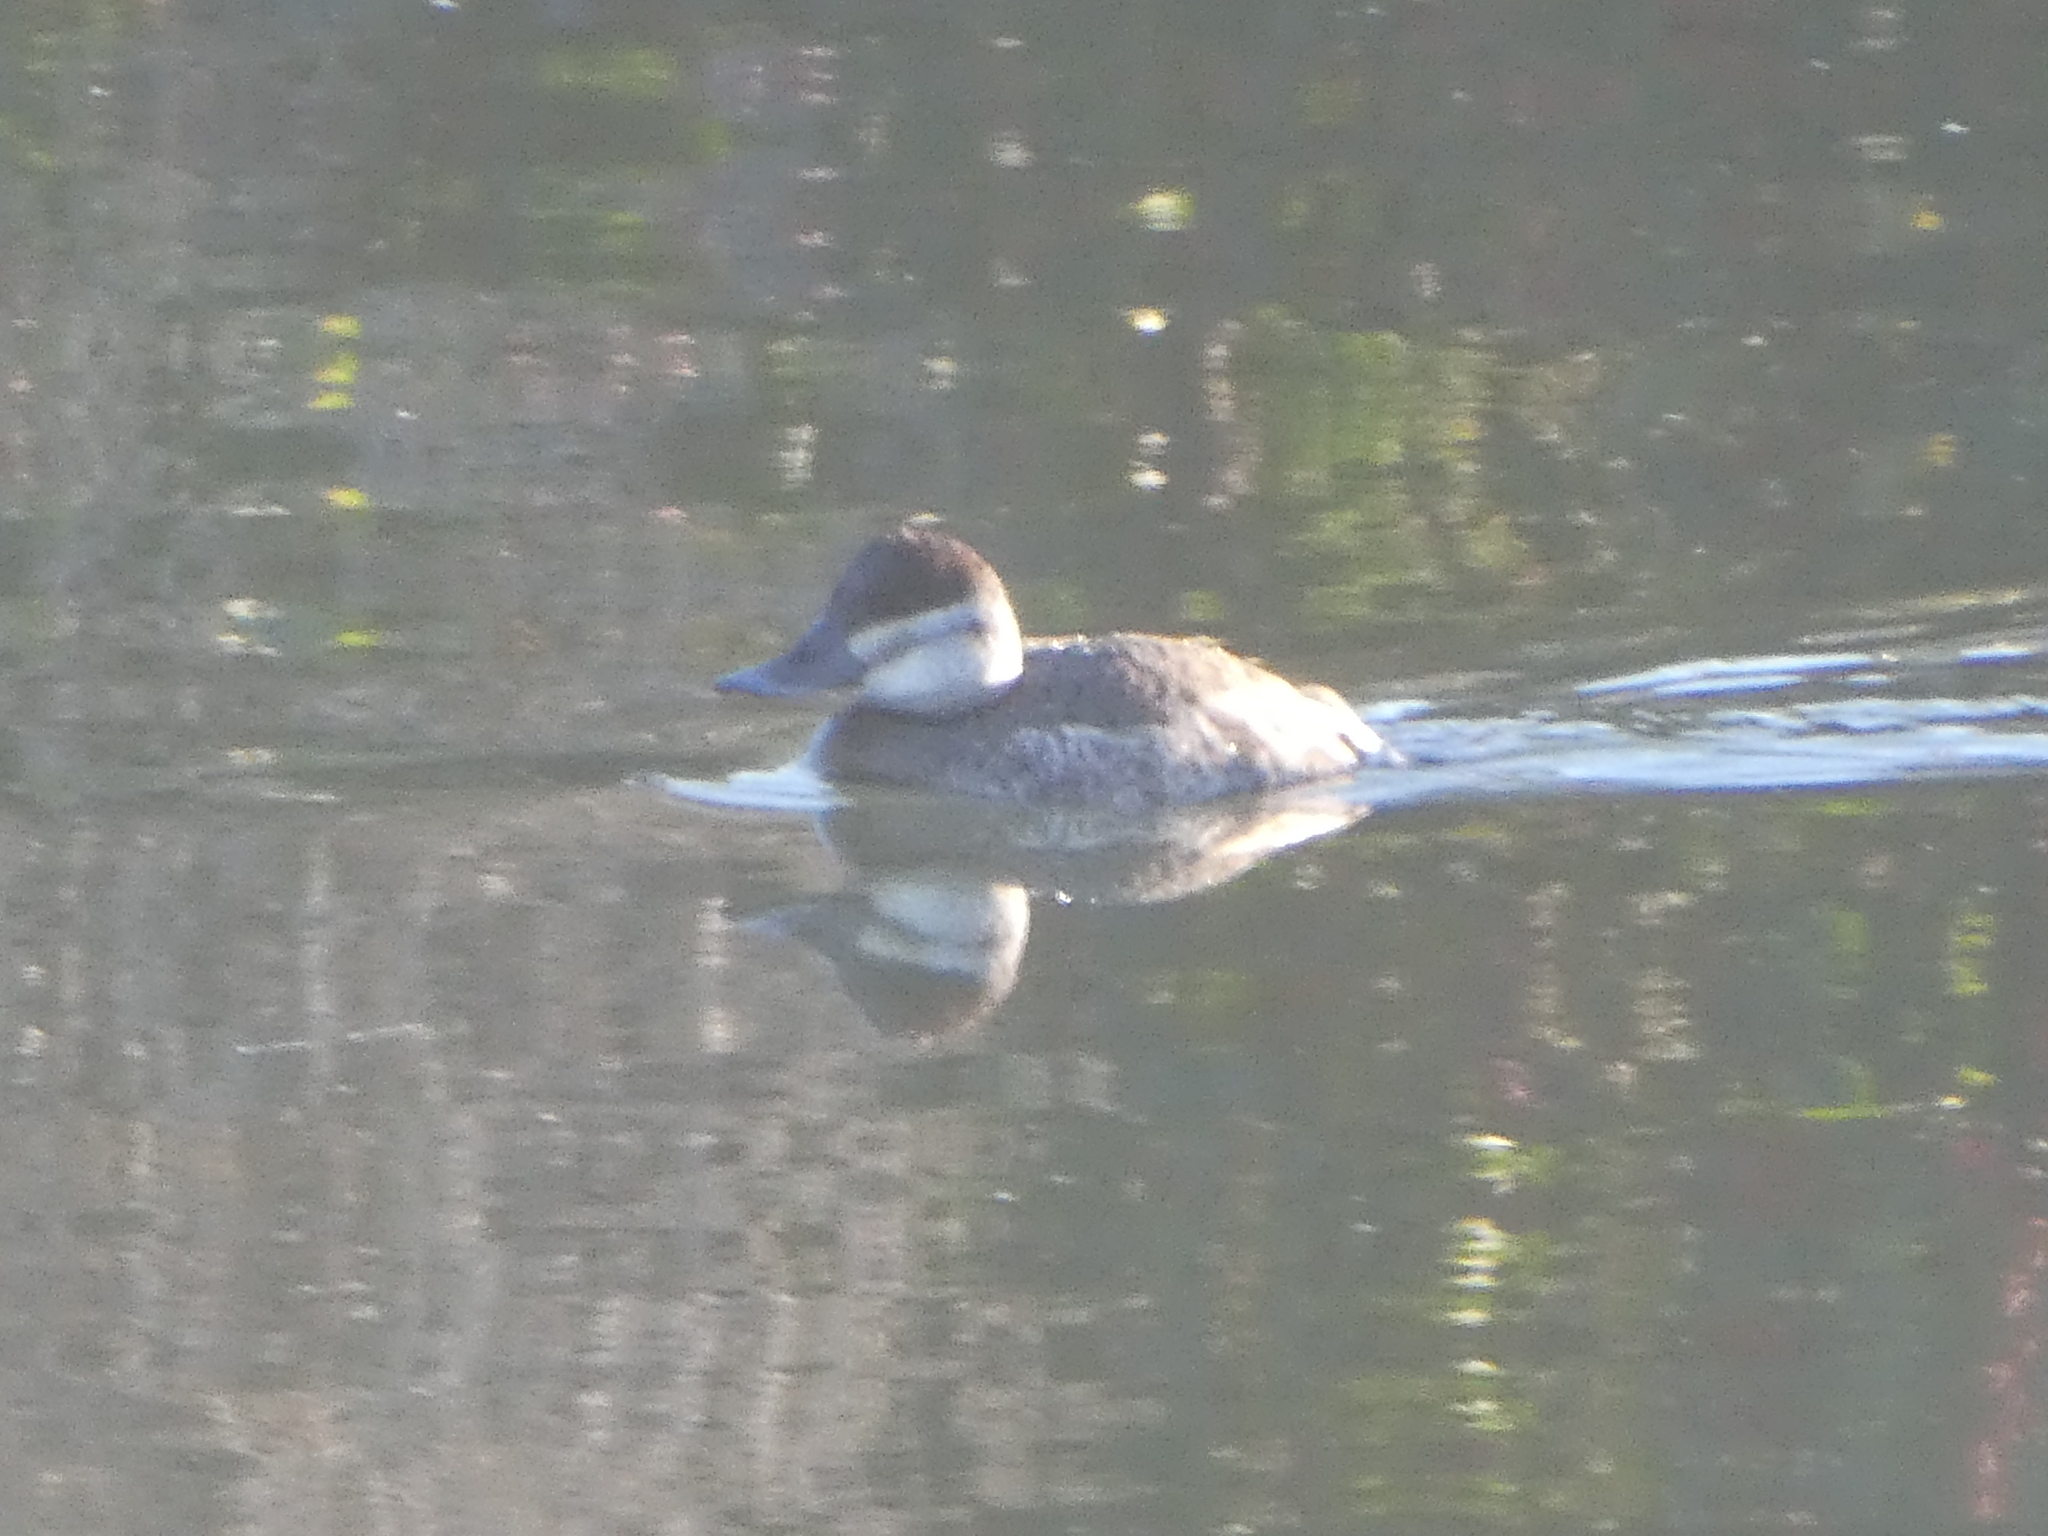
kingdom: Animalia
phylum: Chordata
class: Aves
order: Anseriformes
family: Anatidae
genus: Oxyura
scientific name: Oxyura jamaicensis
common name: Ruddy duck
